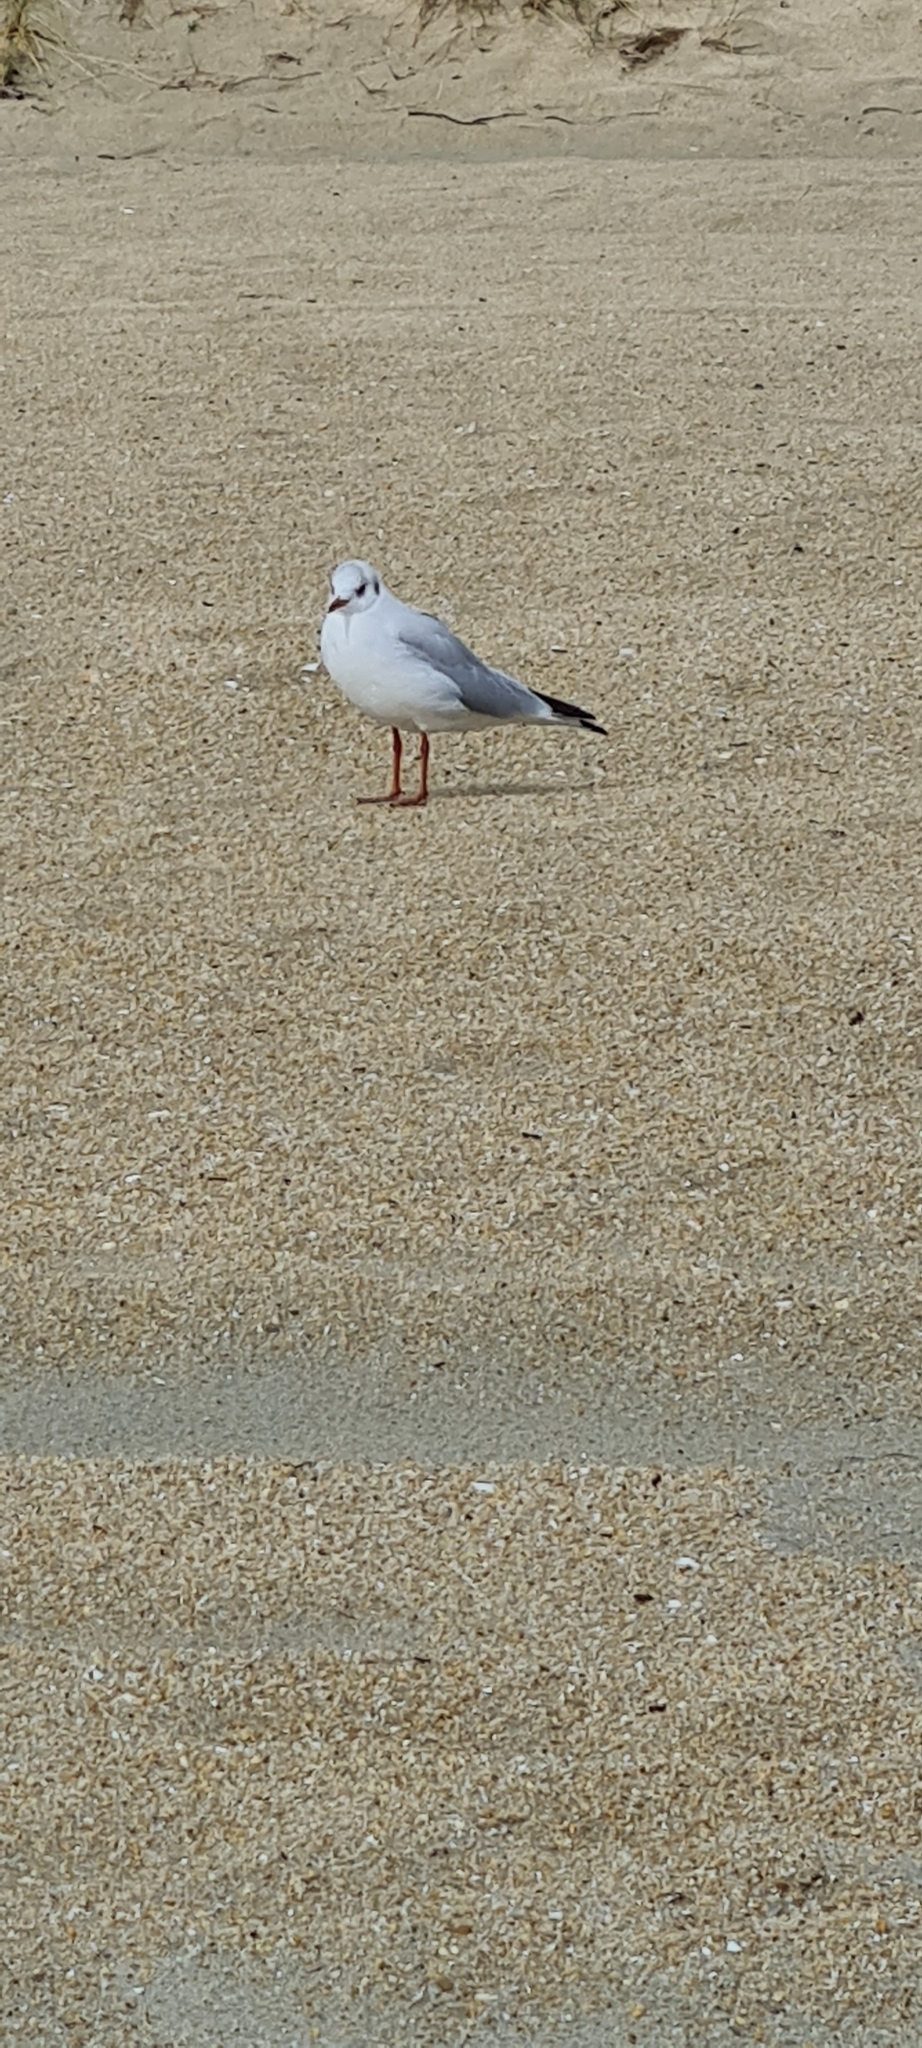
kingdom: Animalia
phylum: Chordata
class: Aves
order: Charadriiformes
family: Laridae
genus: Chroicocephalus
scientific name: Chroicocephalus ridibundus
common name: Black-headed gull
